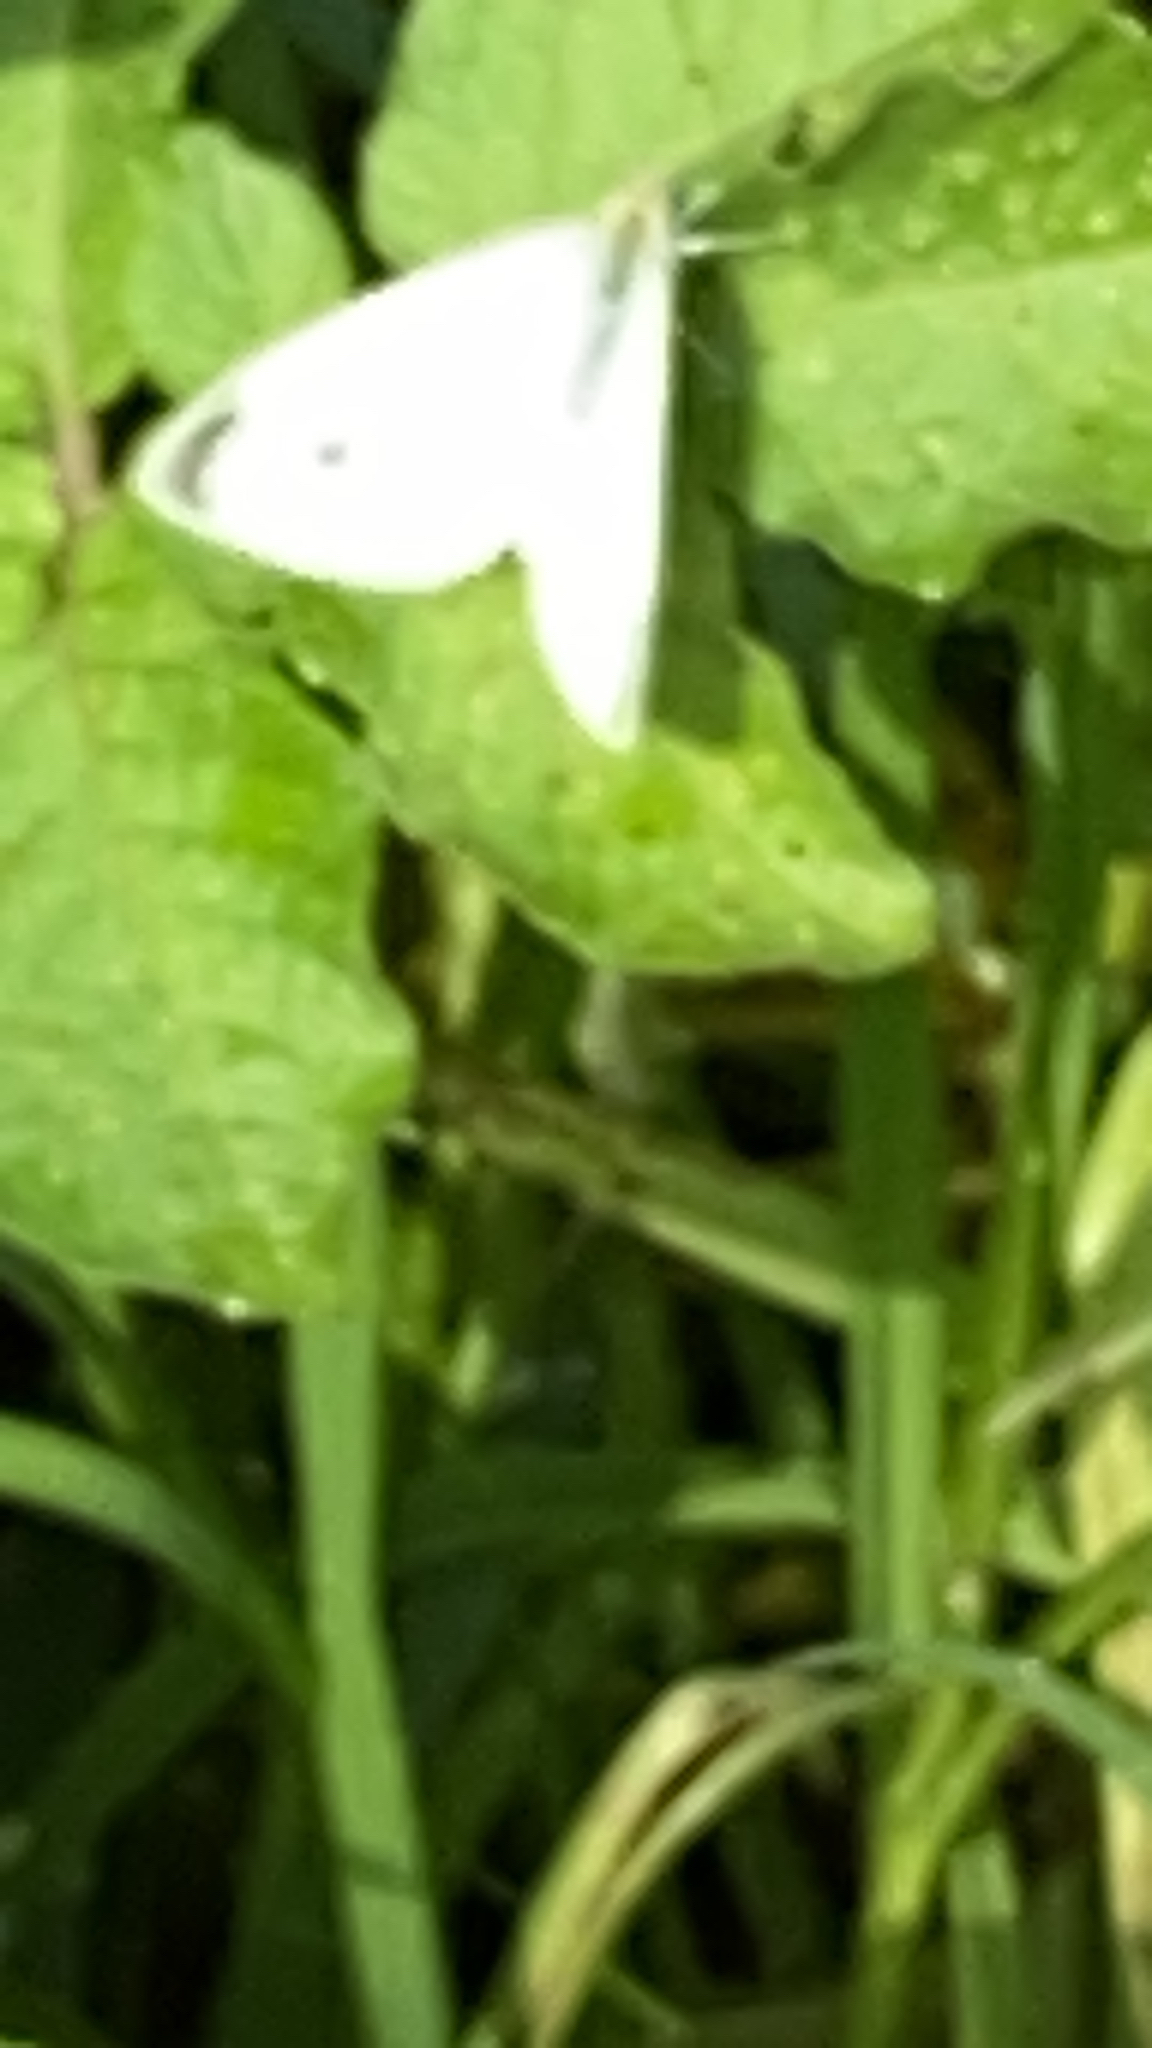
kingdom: Animalia
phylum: Arthropoda
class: Insecta
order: Lepidoptera
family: Pieridae
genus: Pieris
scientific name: Pieris rapae
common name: Small white
